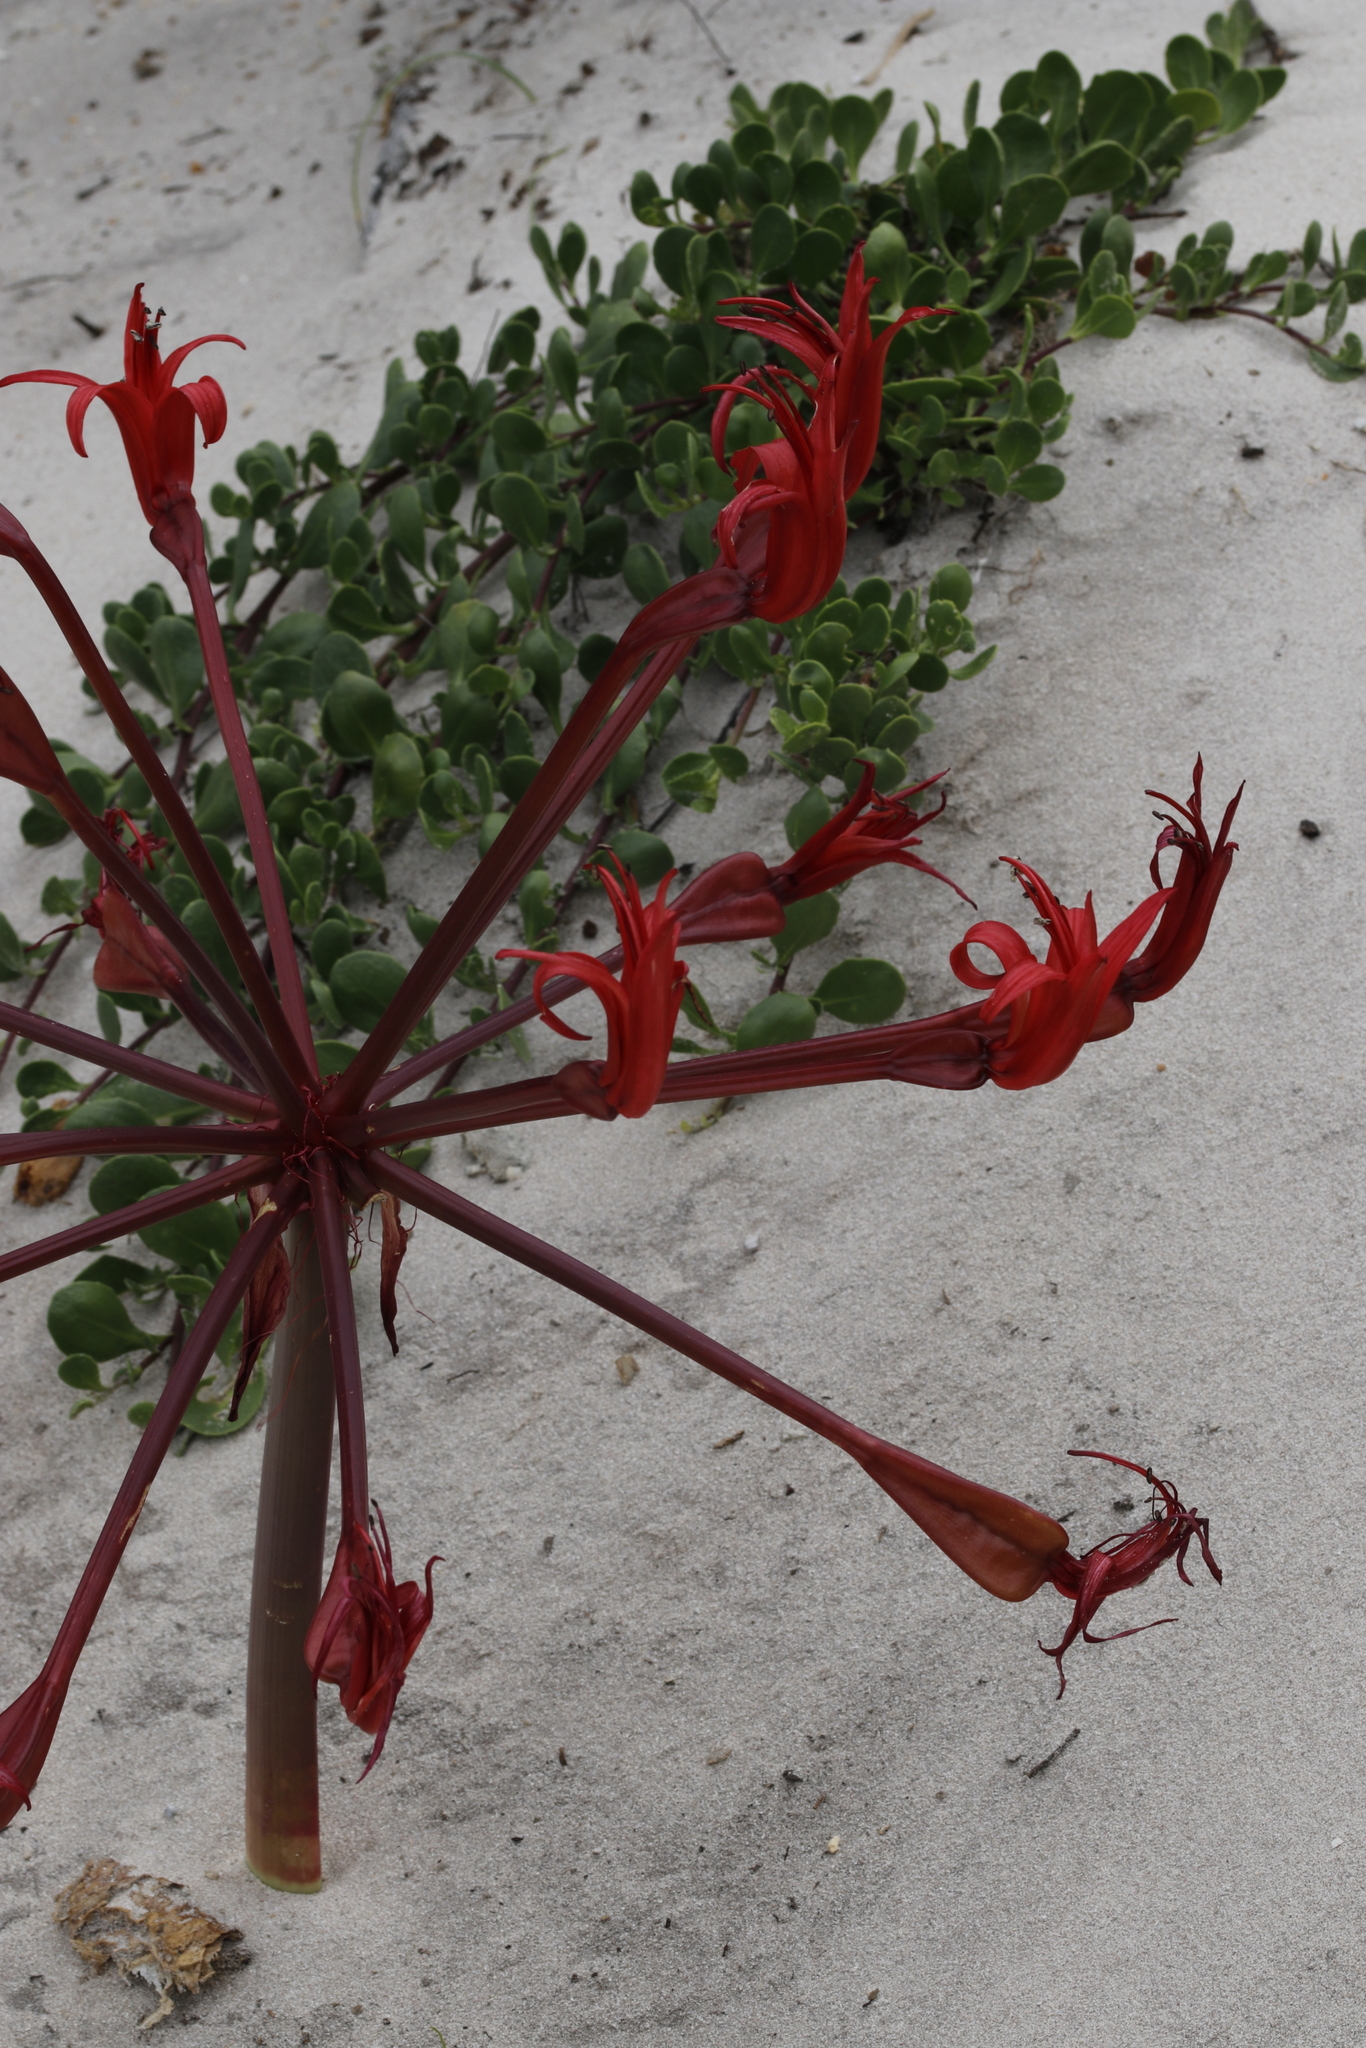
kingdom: Plantae
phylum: Tracheophyta
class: Liliopsida
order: Asparagales
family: Amaryllidaceae
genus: Brunsvigia
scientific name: Brunsvigia orientalis
